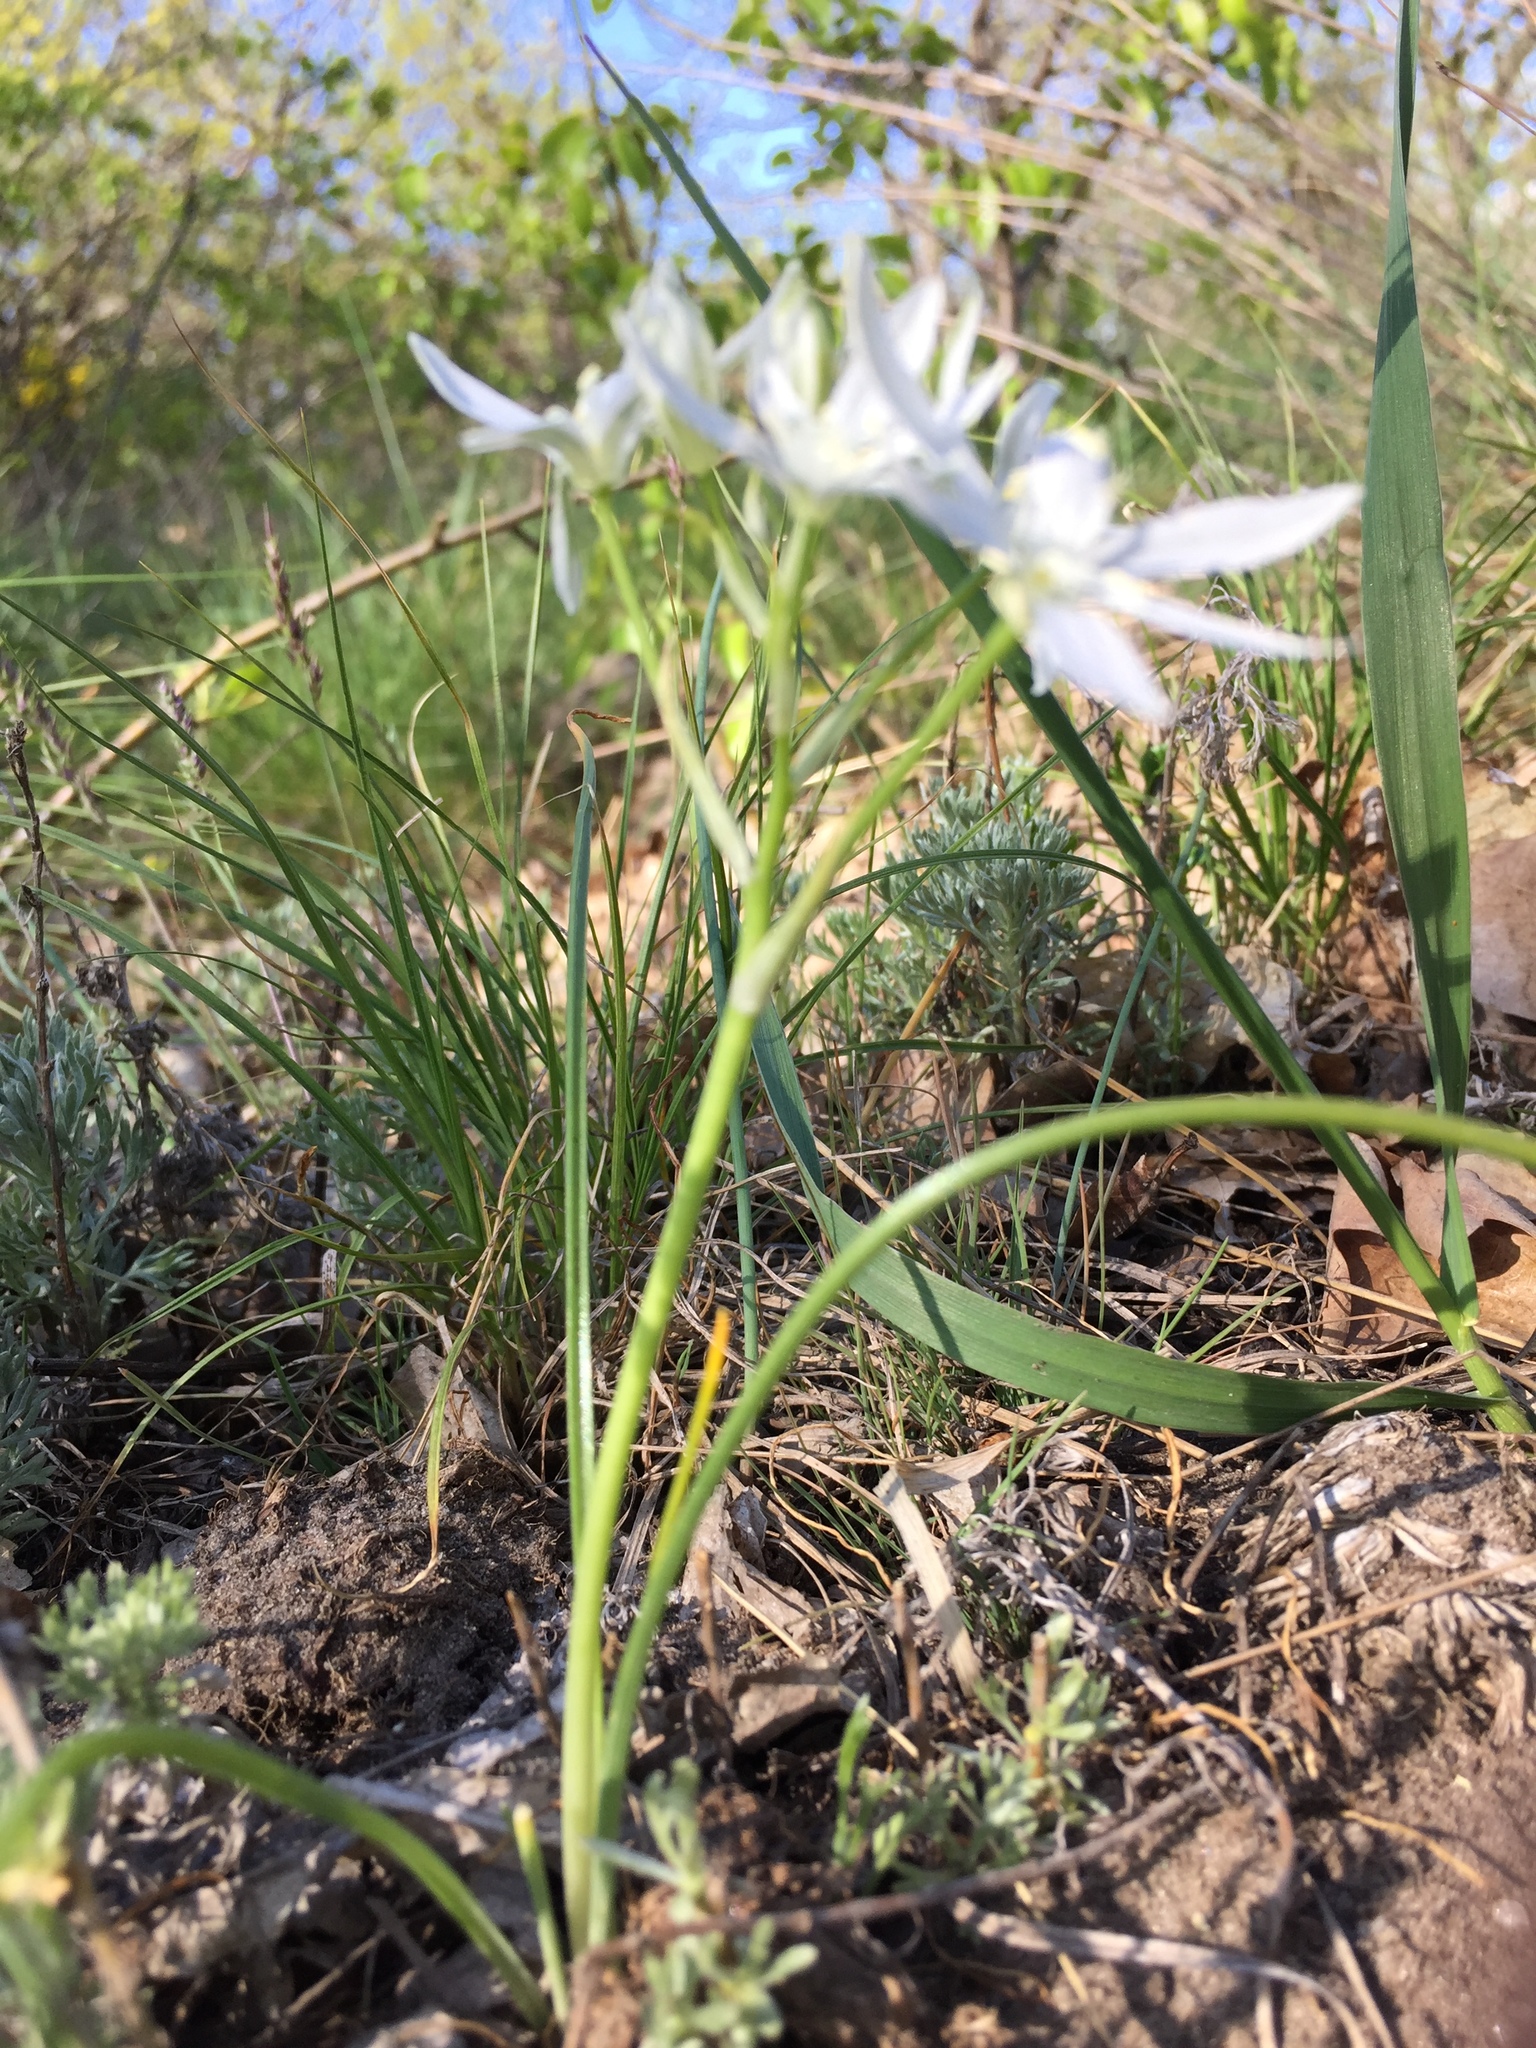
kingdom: Plantae
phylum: Tracheophyta
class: Liliopsida
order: Asparagales
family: Asparagaceae
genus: Ornithogalum
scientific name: Ornithogalum orthophyllum
